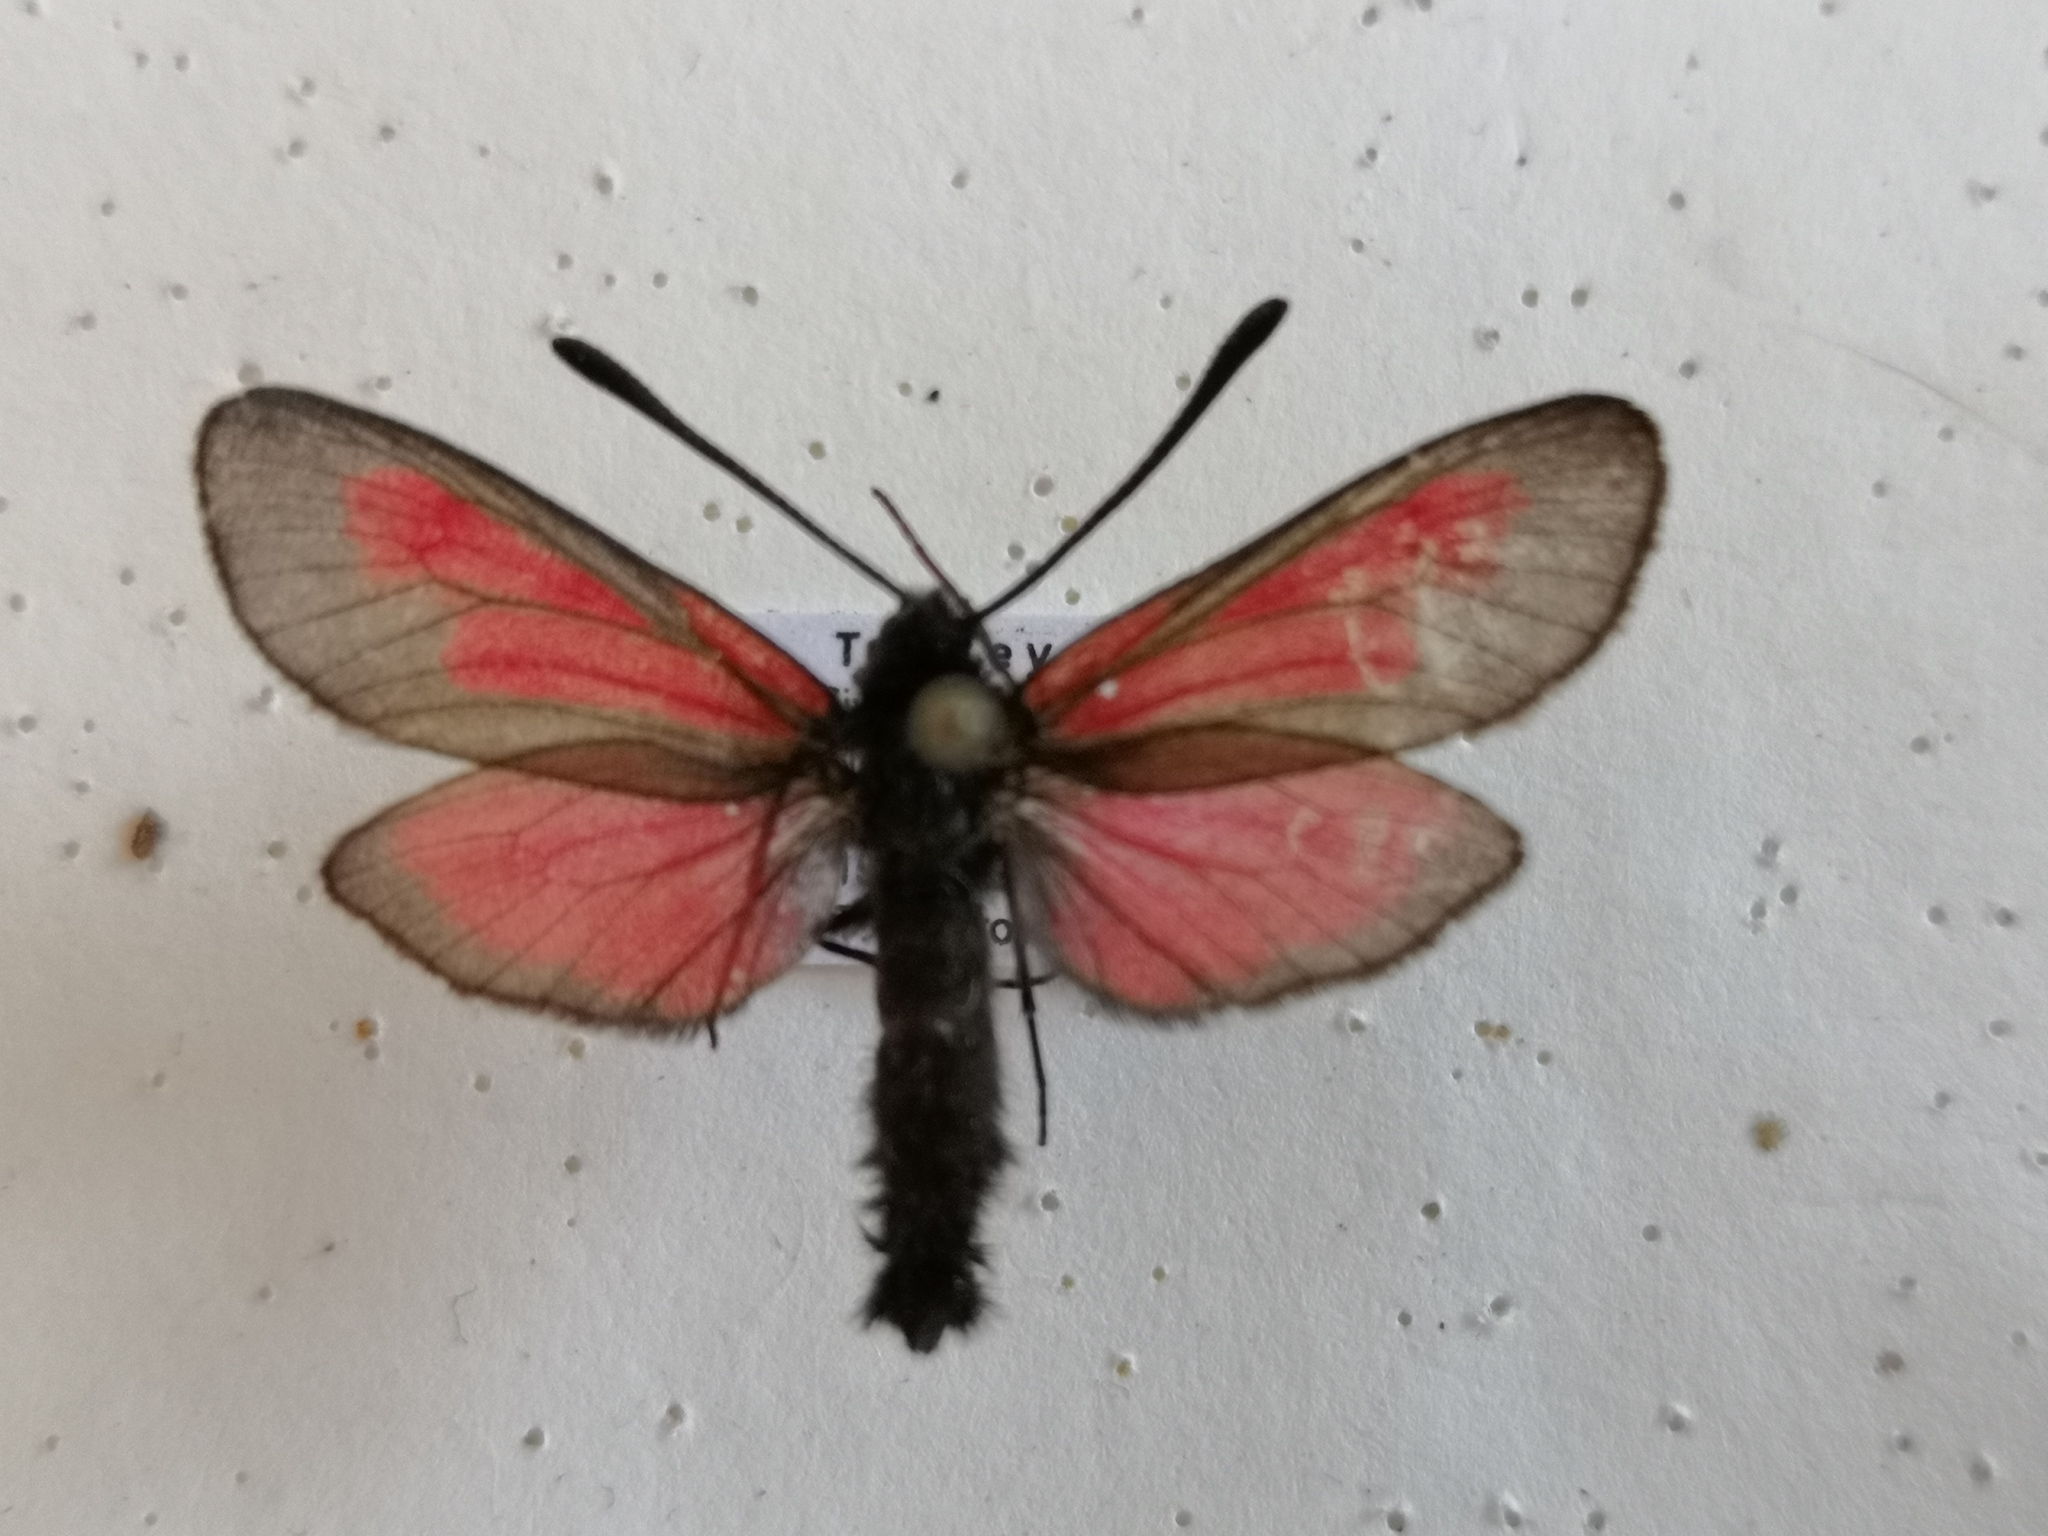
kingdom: Animalia
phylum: Arthropoda
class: Insecta
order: Lepidoptera
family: Zygaenidae
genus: Zygaena
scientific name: Zygaena brizae
